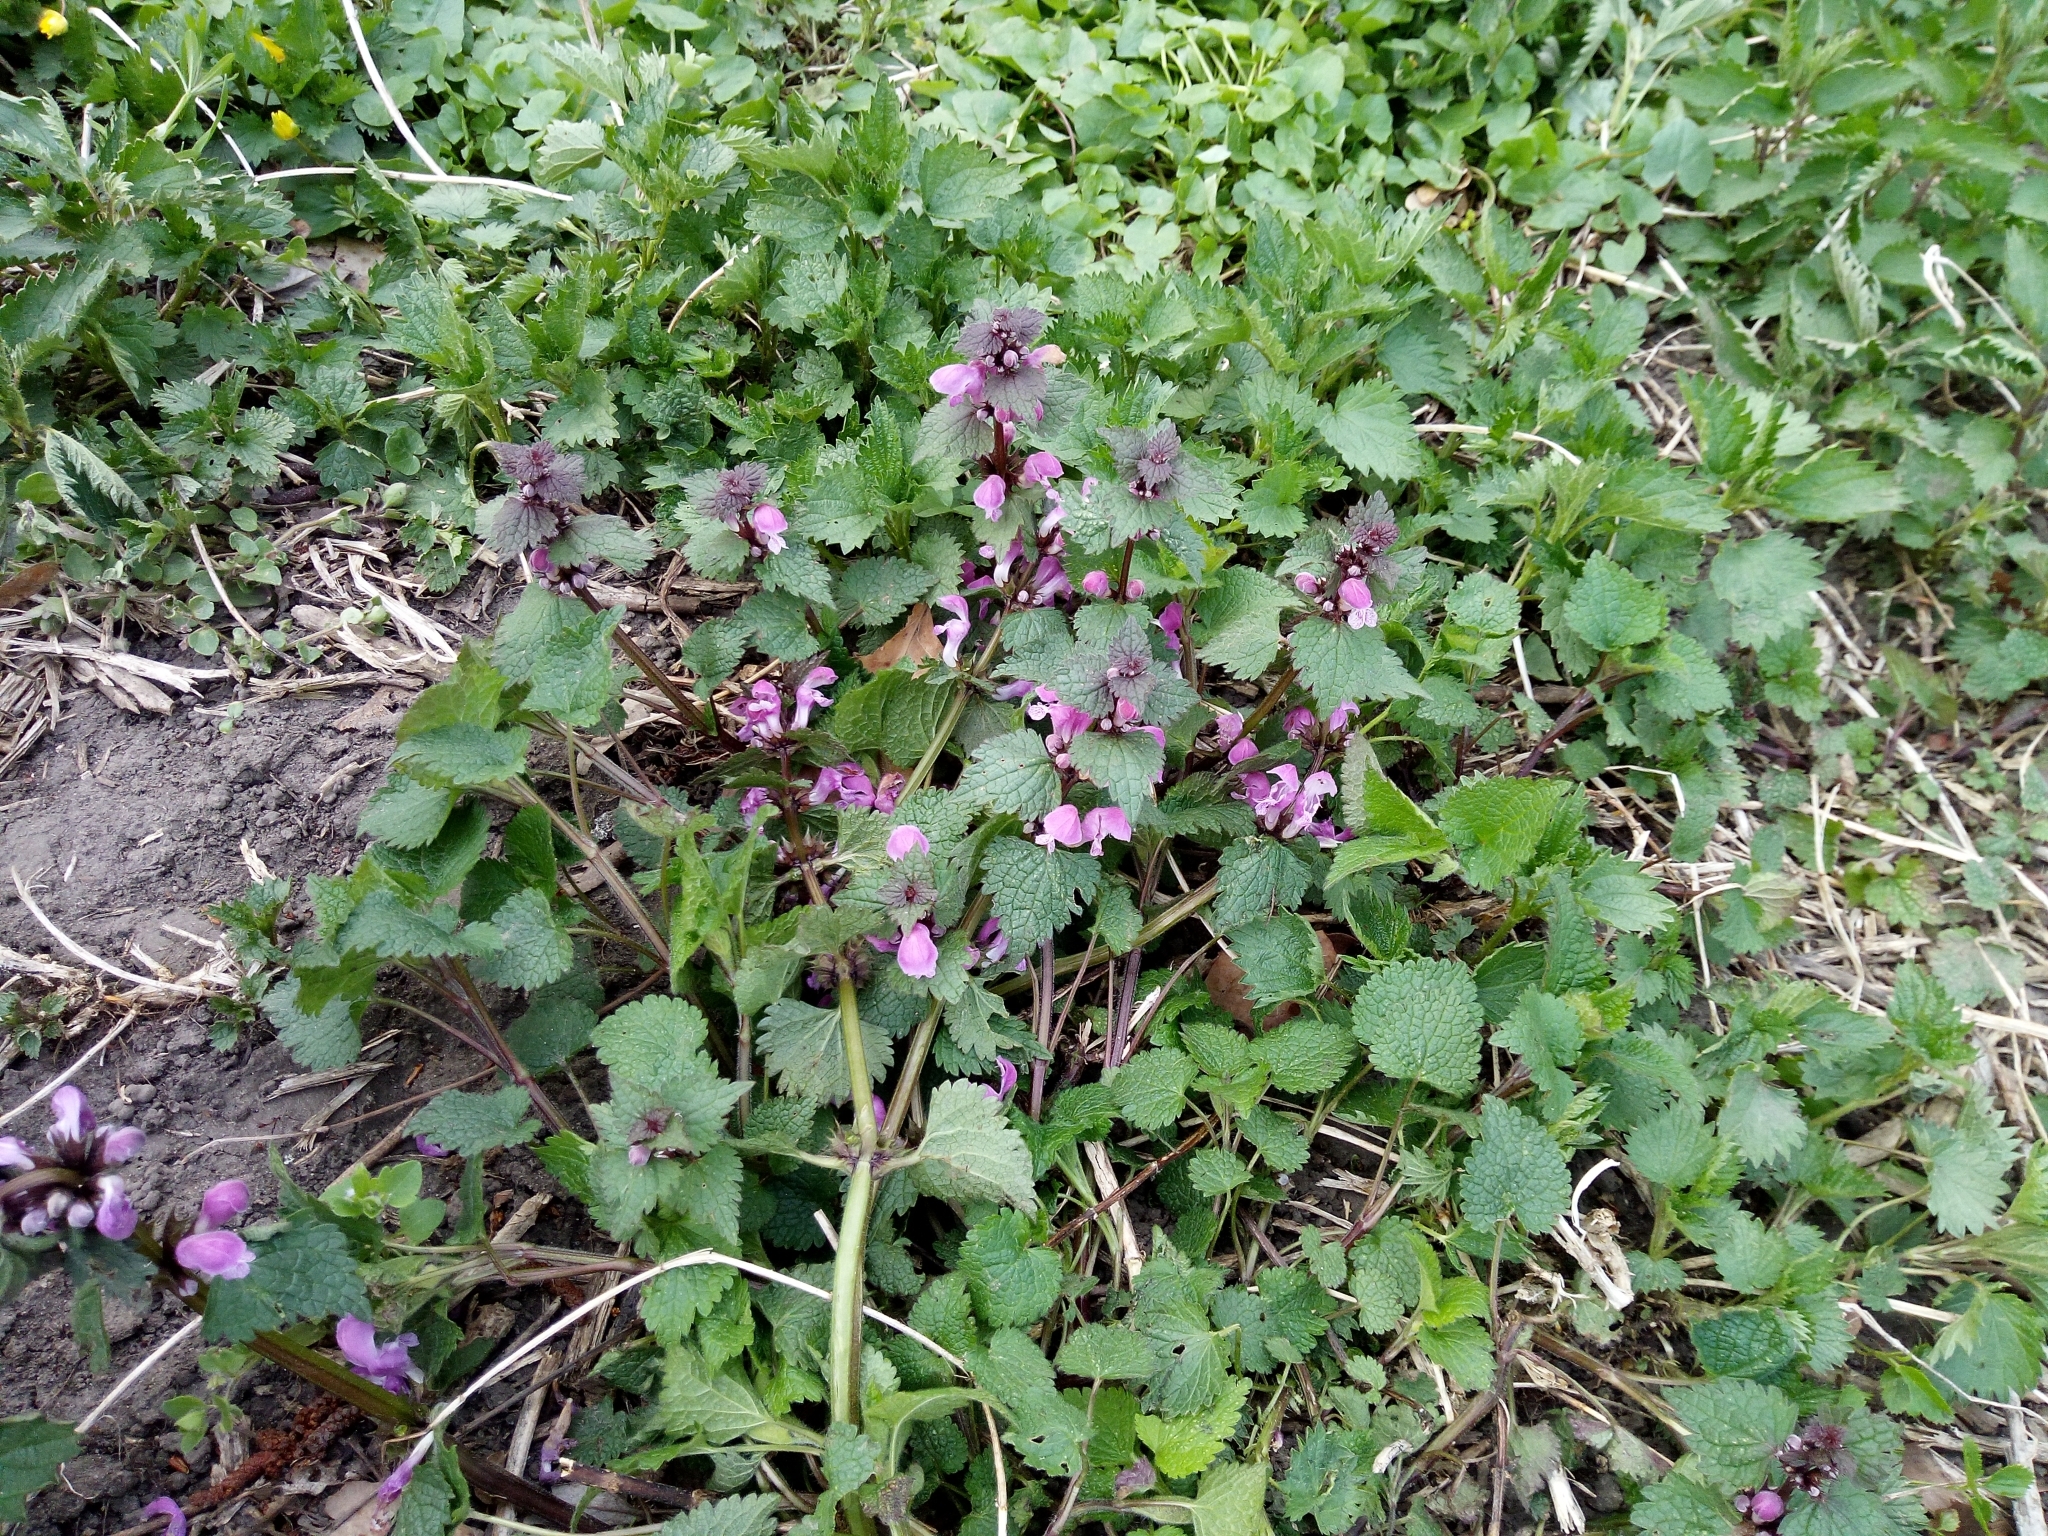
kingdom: Plantae
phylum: Tracheophyta
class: Magnoliopsida
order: Lamiales
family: Lamiaceae
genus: Lamium
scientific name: Lamium maculatum
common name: Spotted dead-nettle
